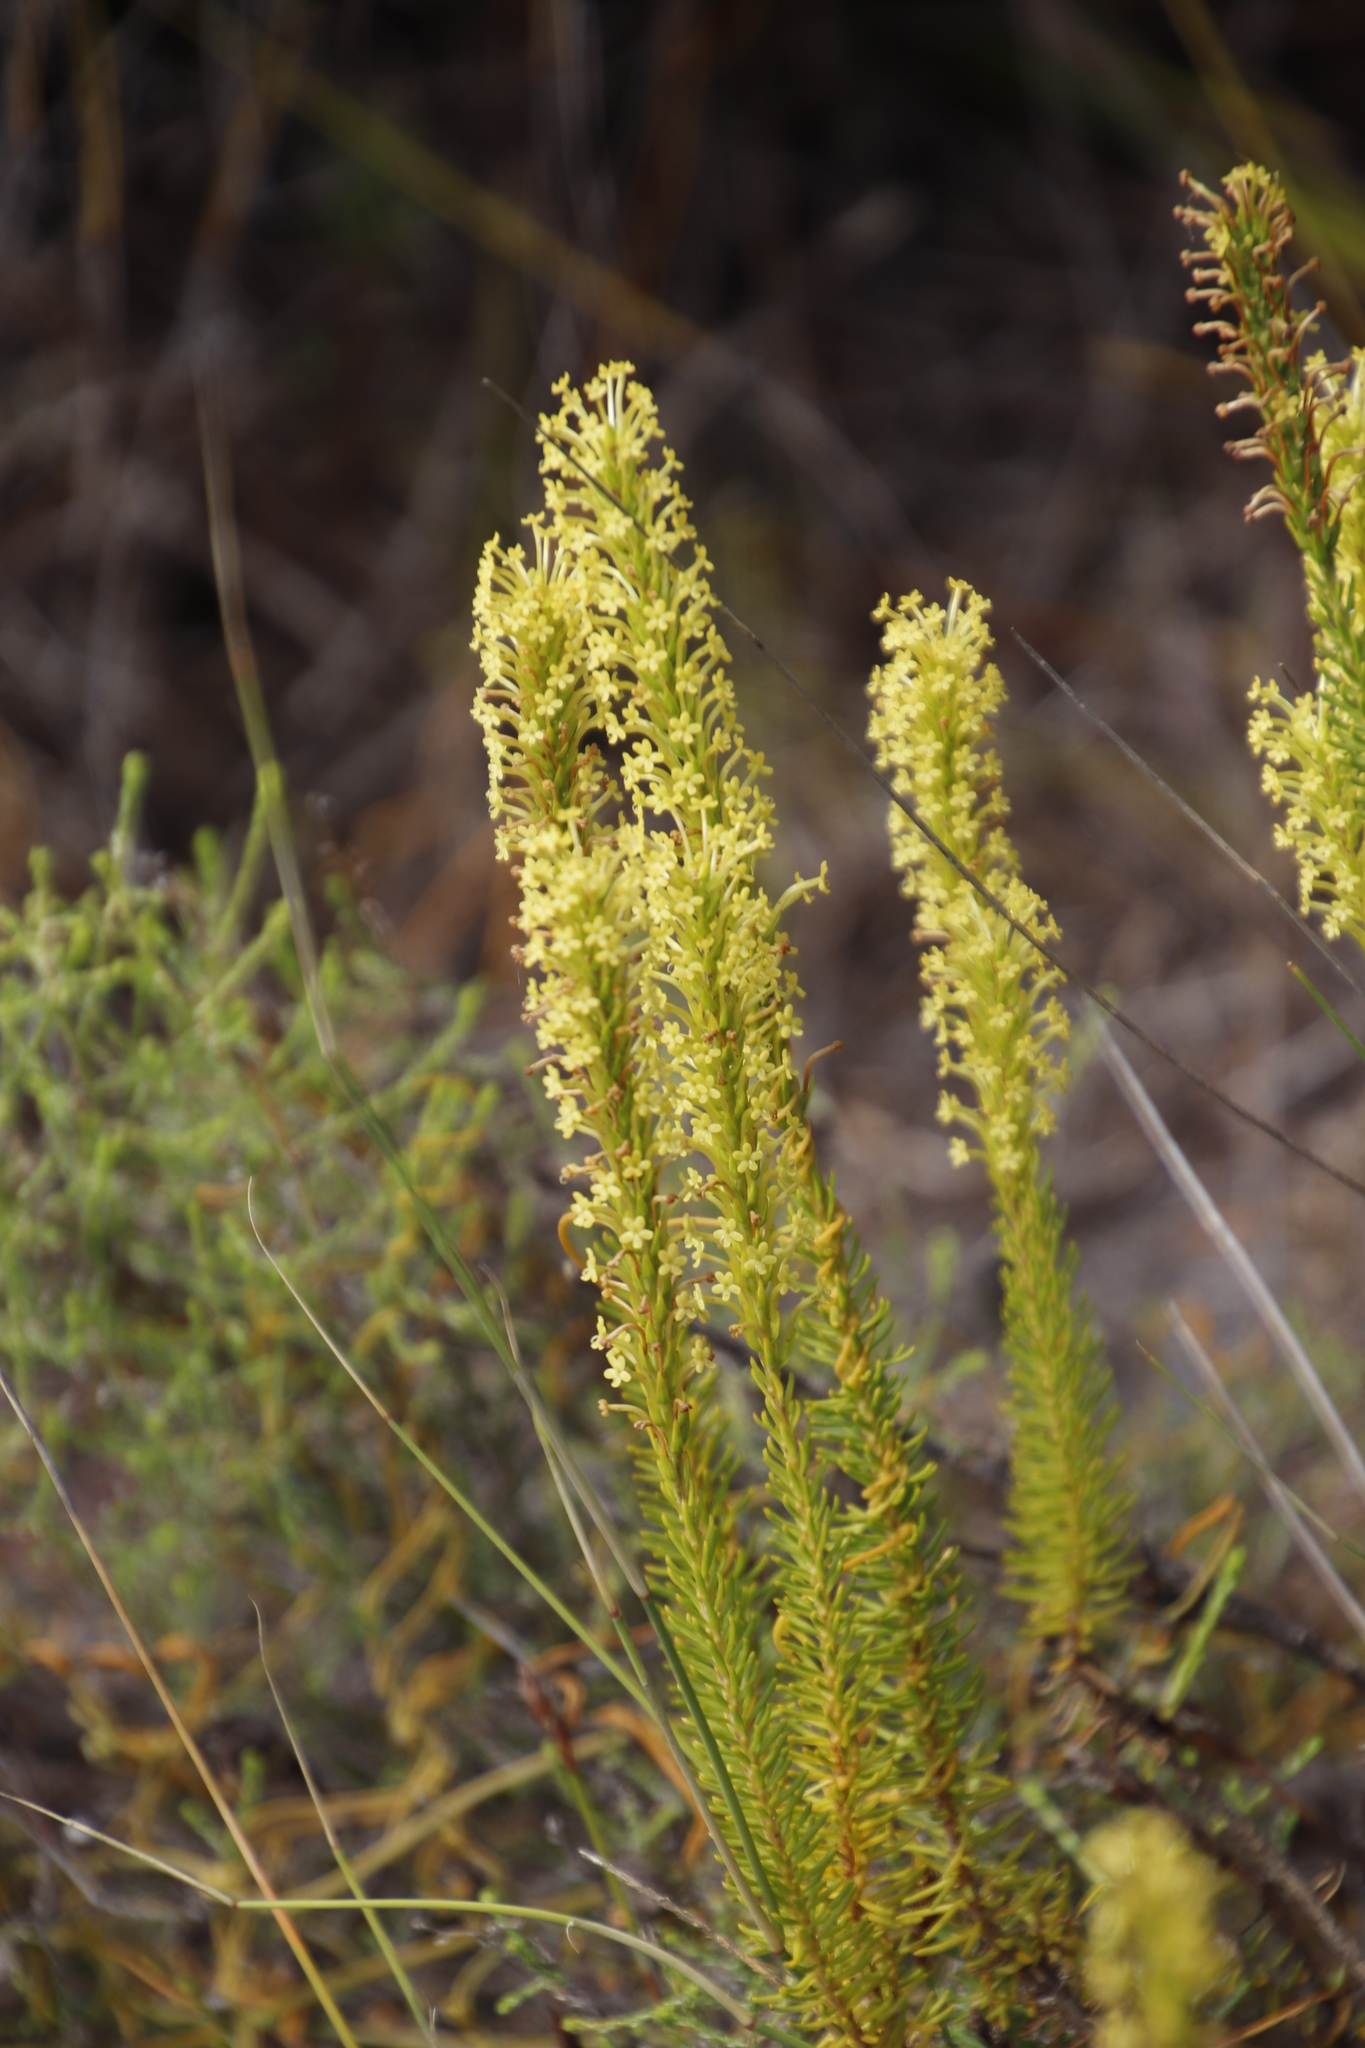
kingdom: Plantae
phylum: Tracheophyta
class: Magnoliopsida
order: Lamiales
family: Scrophulariaceae
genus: Microdon
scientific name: Microdon dubius
